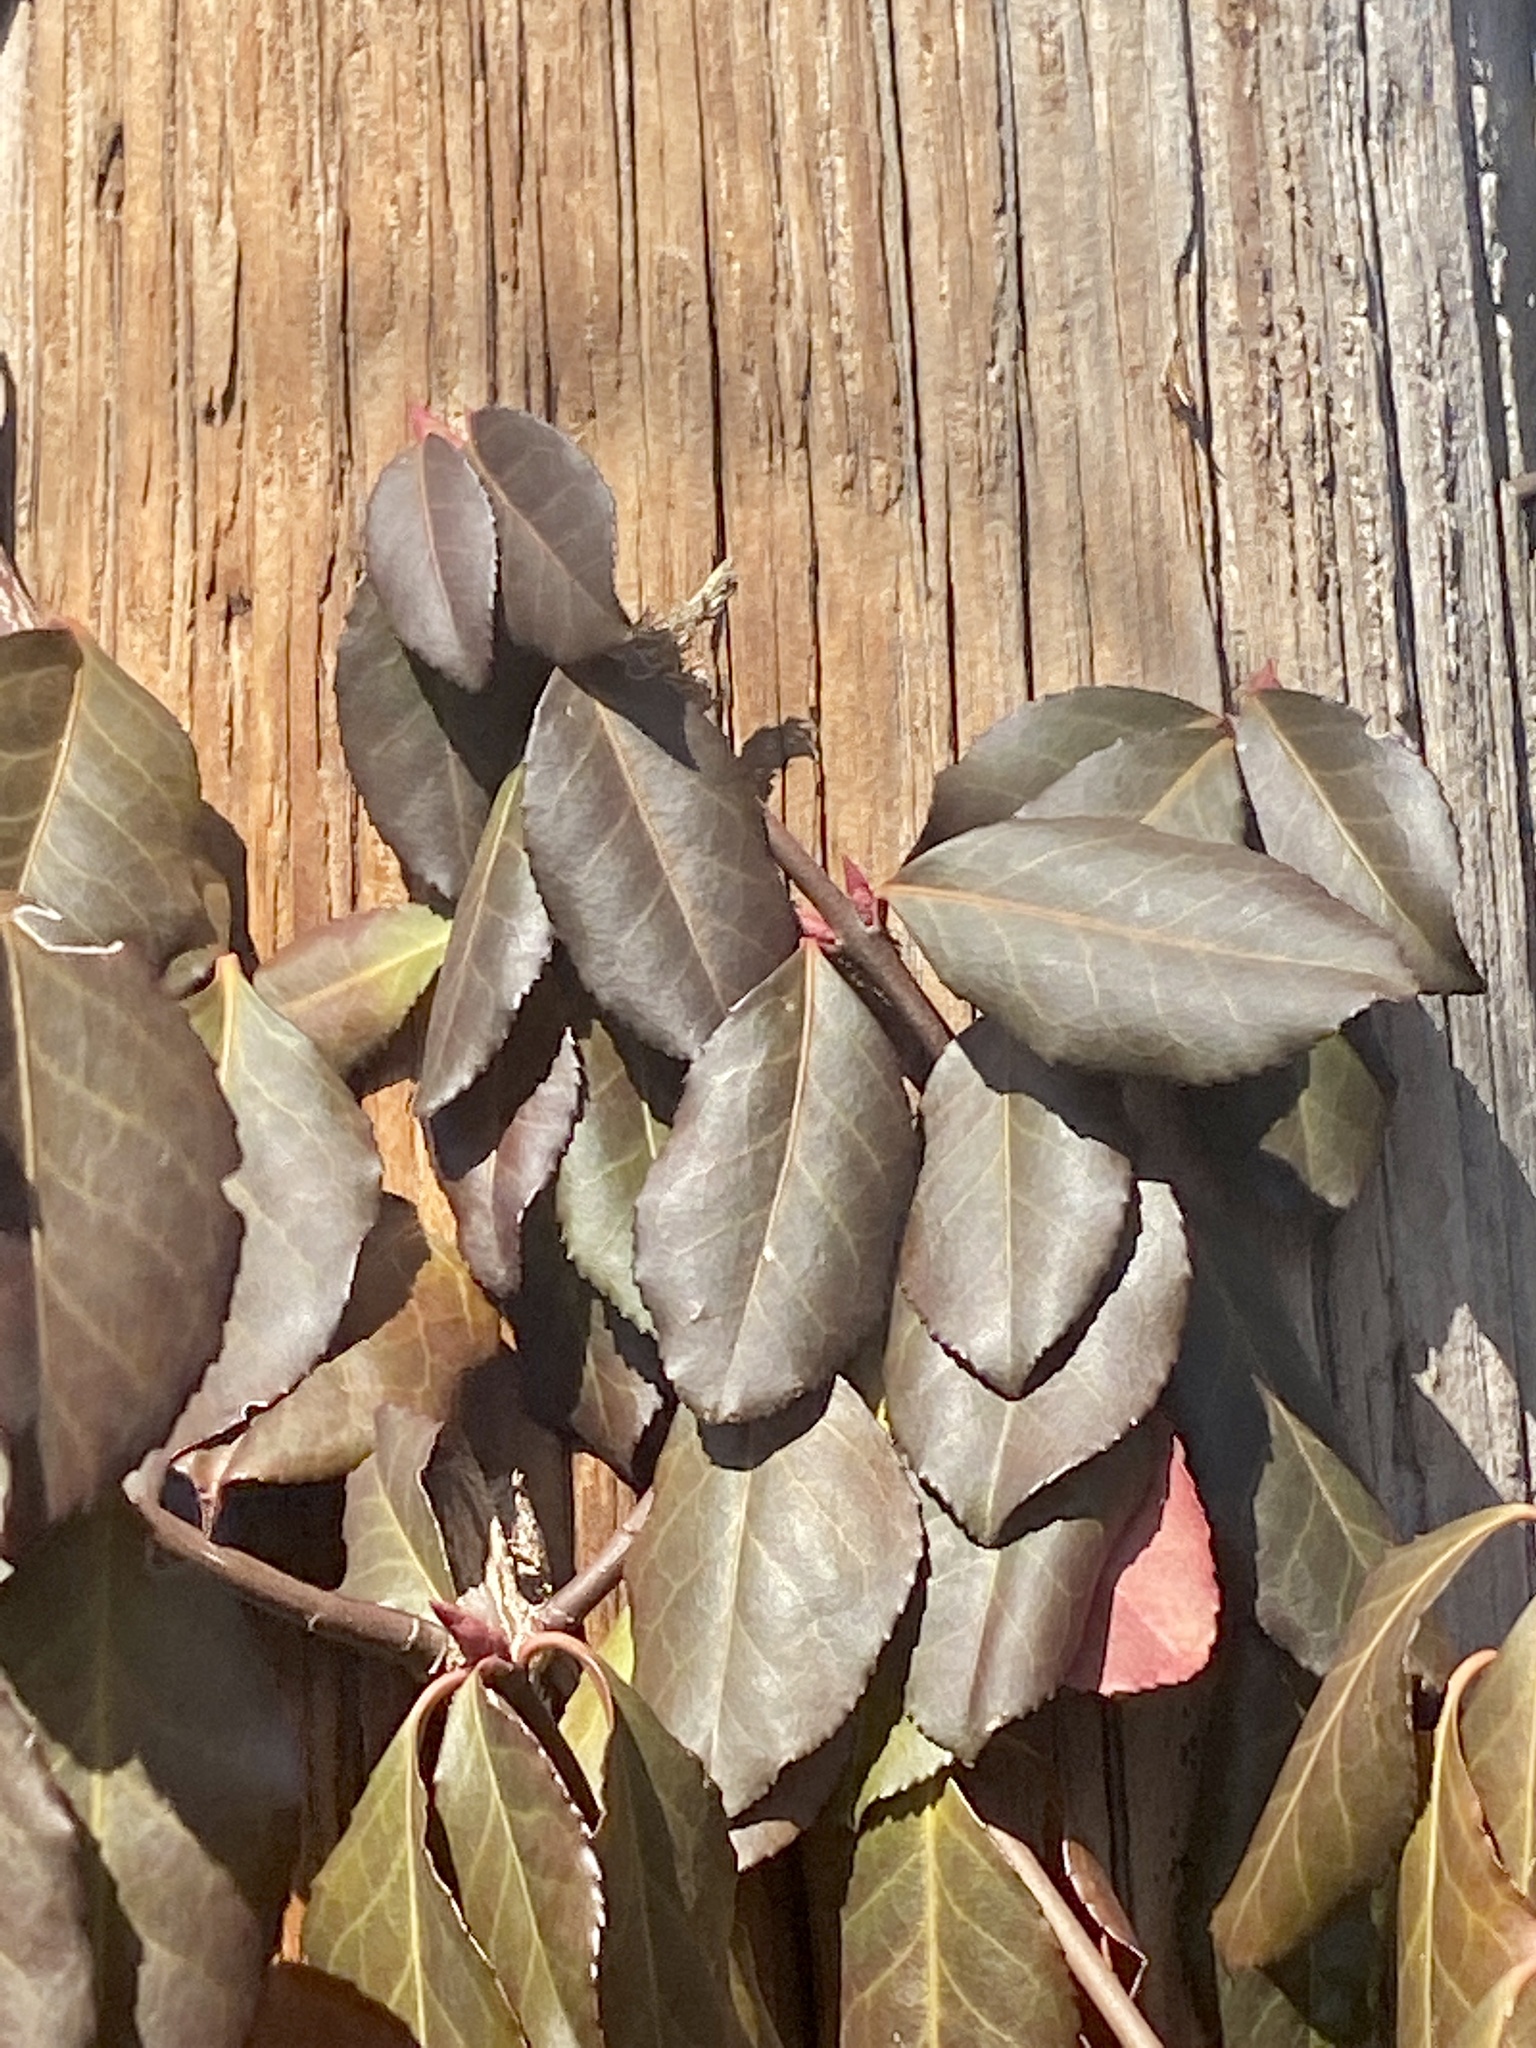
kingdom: Plantae
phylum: Tracheophyta
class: Magnoliopsida
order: Celastrales
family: Celastraceae
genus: Euonymus
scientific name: Euonymus fortunei
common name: Climbing euonymus
